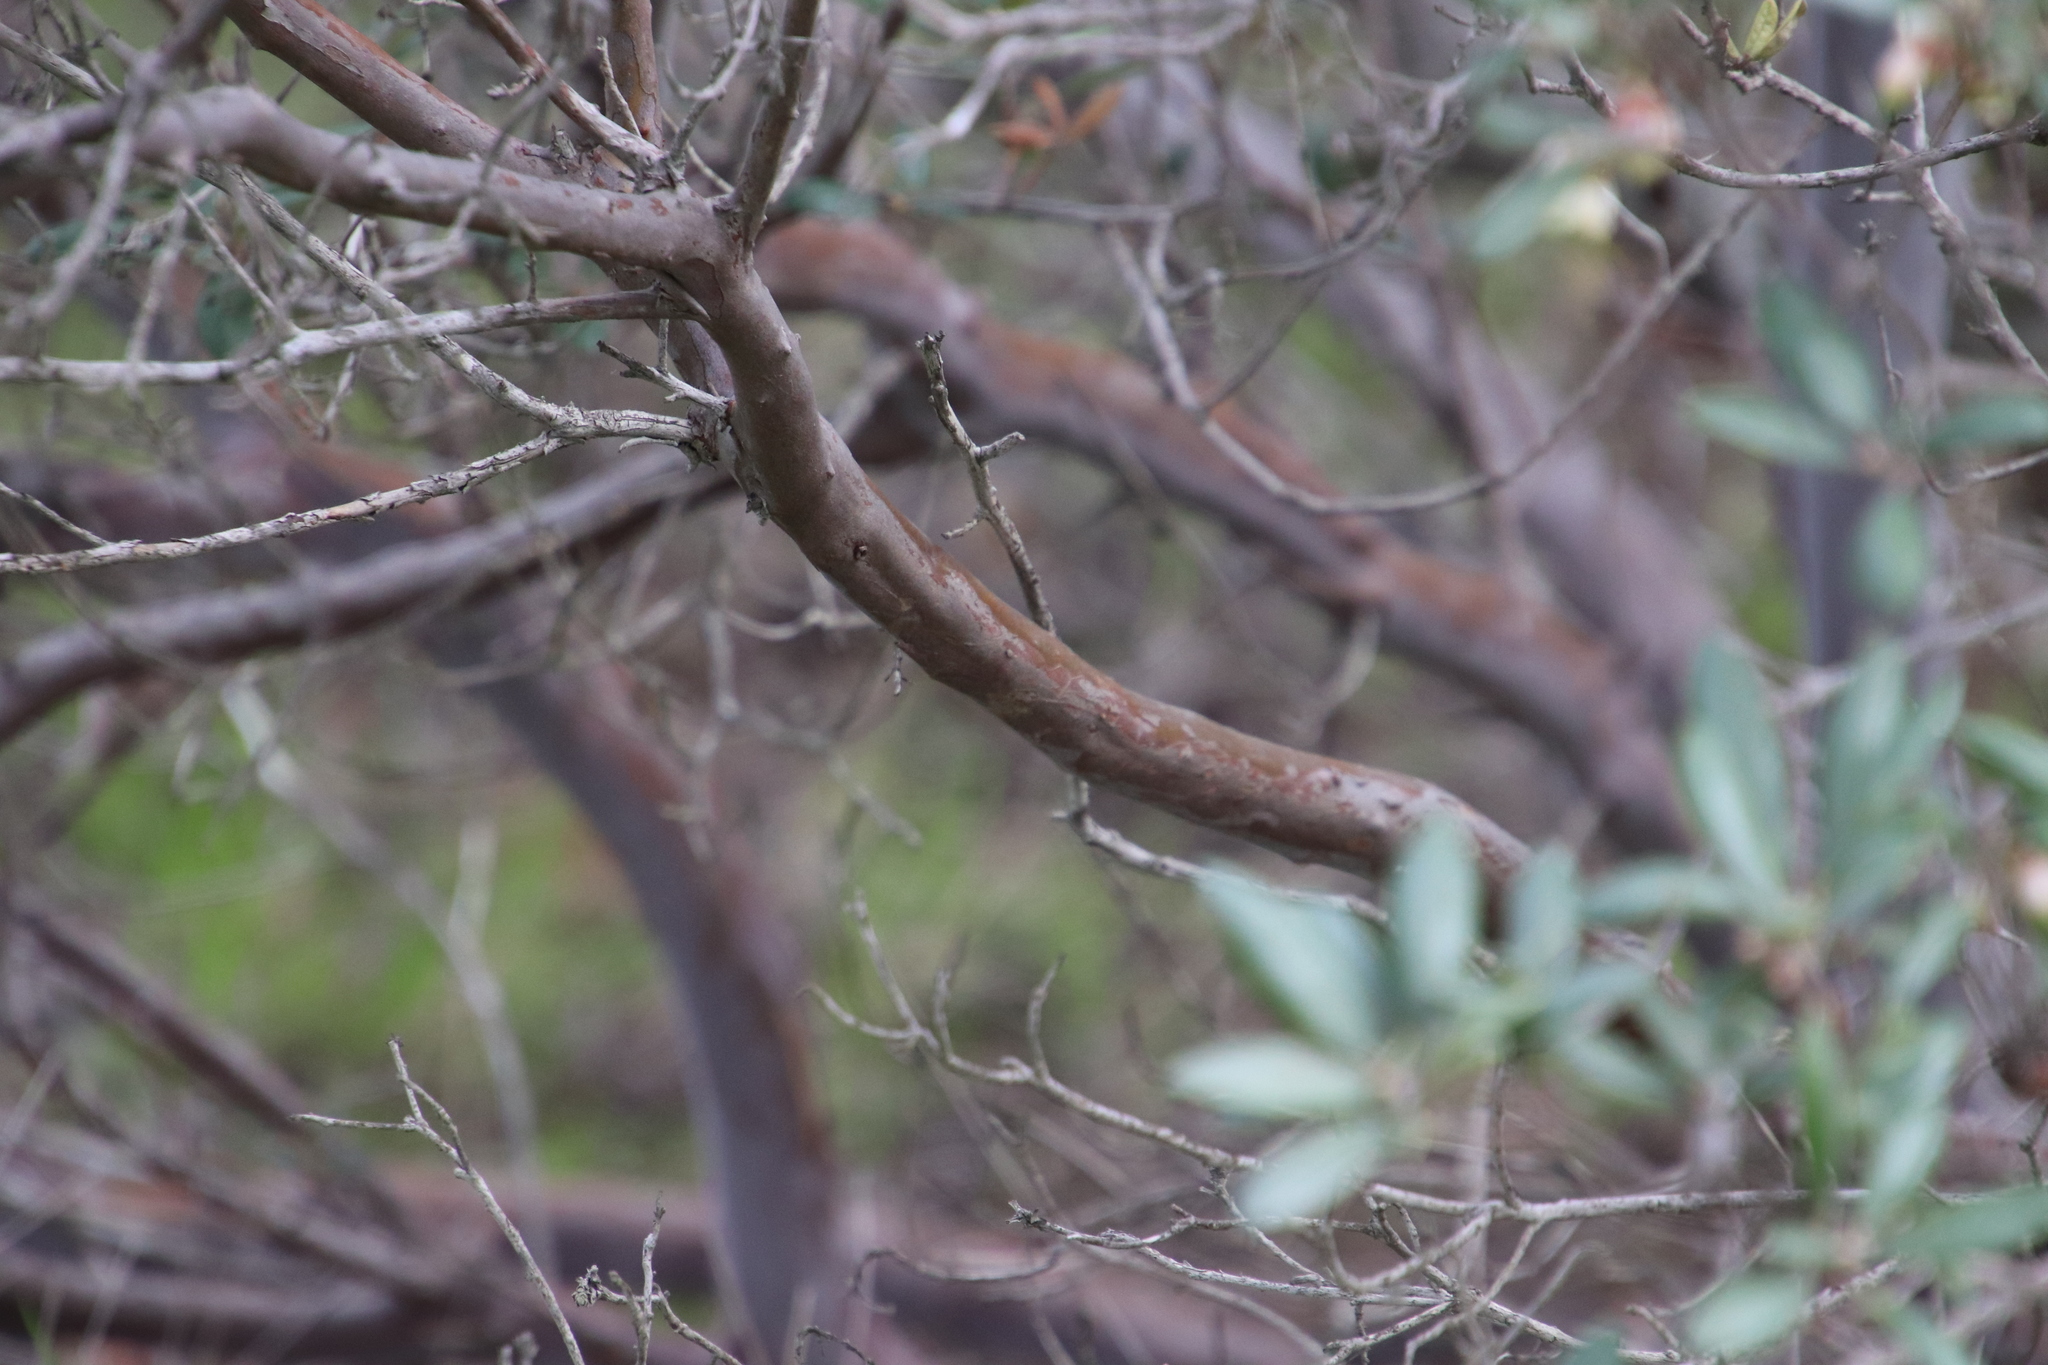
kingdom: Plantae
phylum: Tracheophyta
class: Magnoliopsida
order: Ericales
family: Ericaceae
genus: Arctostaphylos
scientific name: Arctostaphylos bicolor
